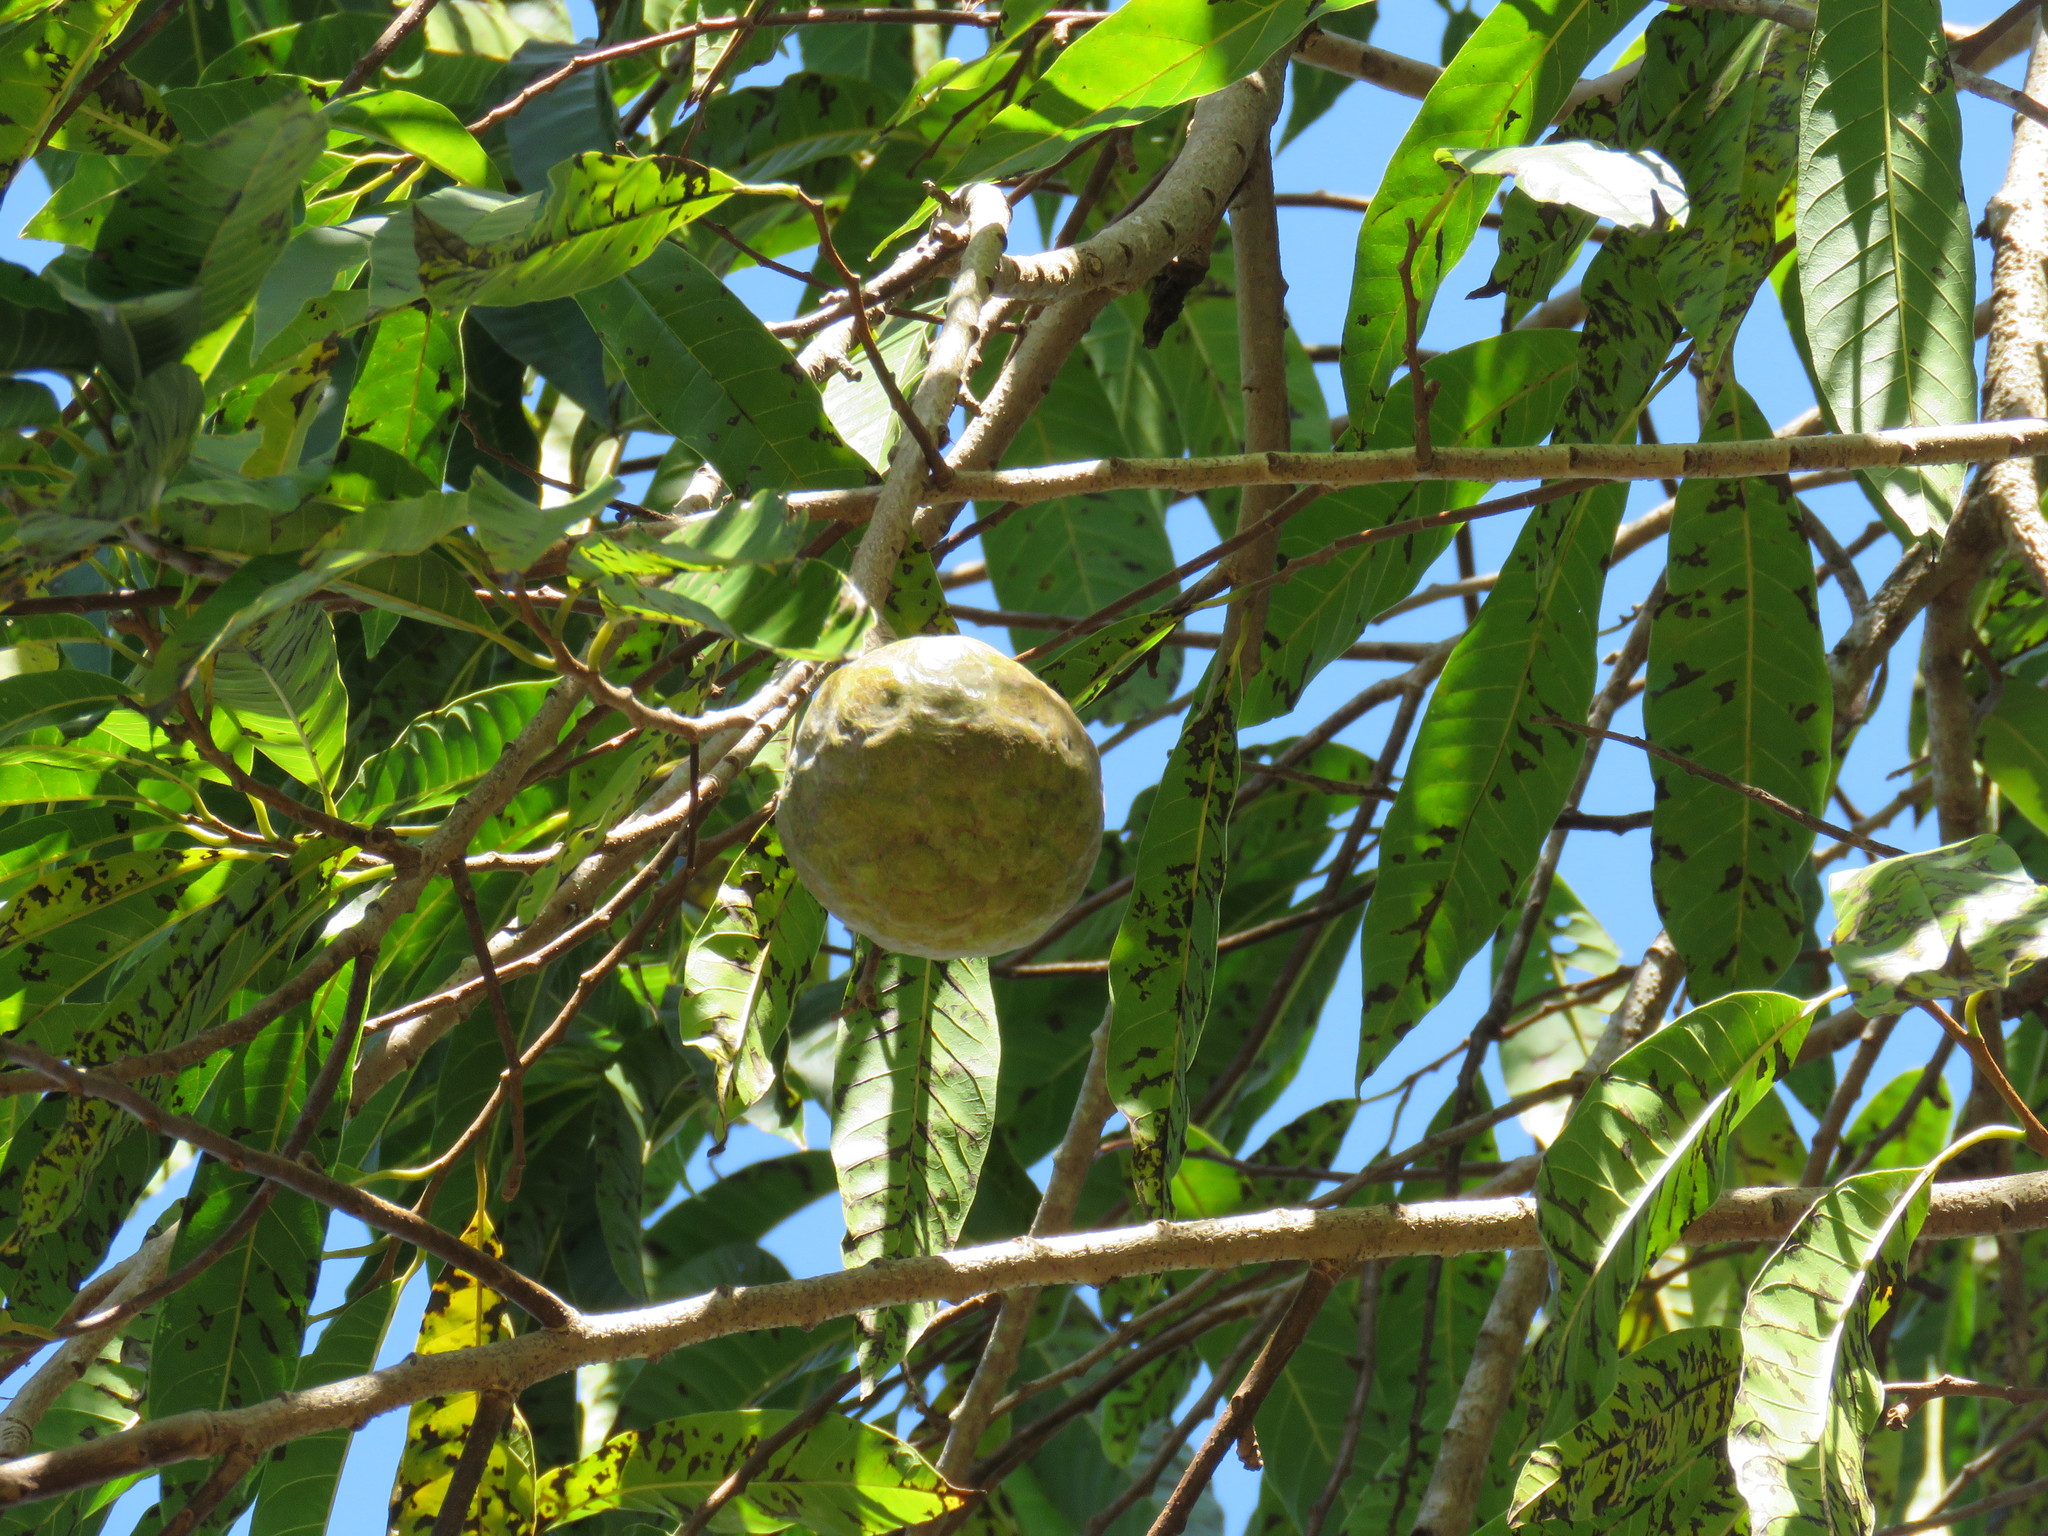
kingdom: Plantae
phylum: Tracheophyta
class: Magnoliopsida
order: Magnoliales
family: Annonaceae
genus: Annona
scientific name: Annona reticulata
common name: Custard apple
